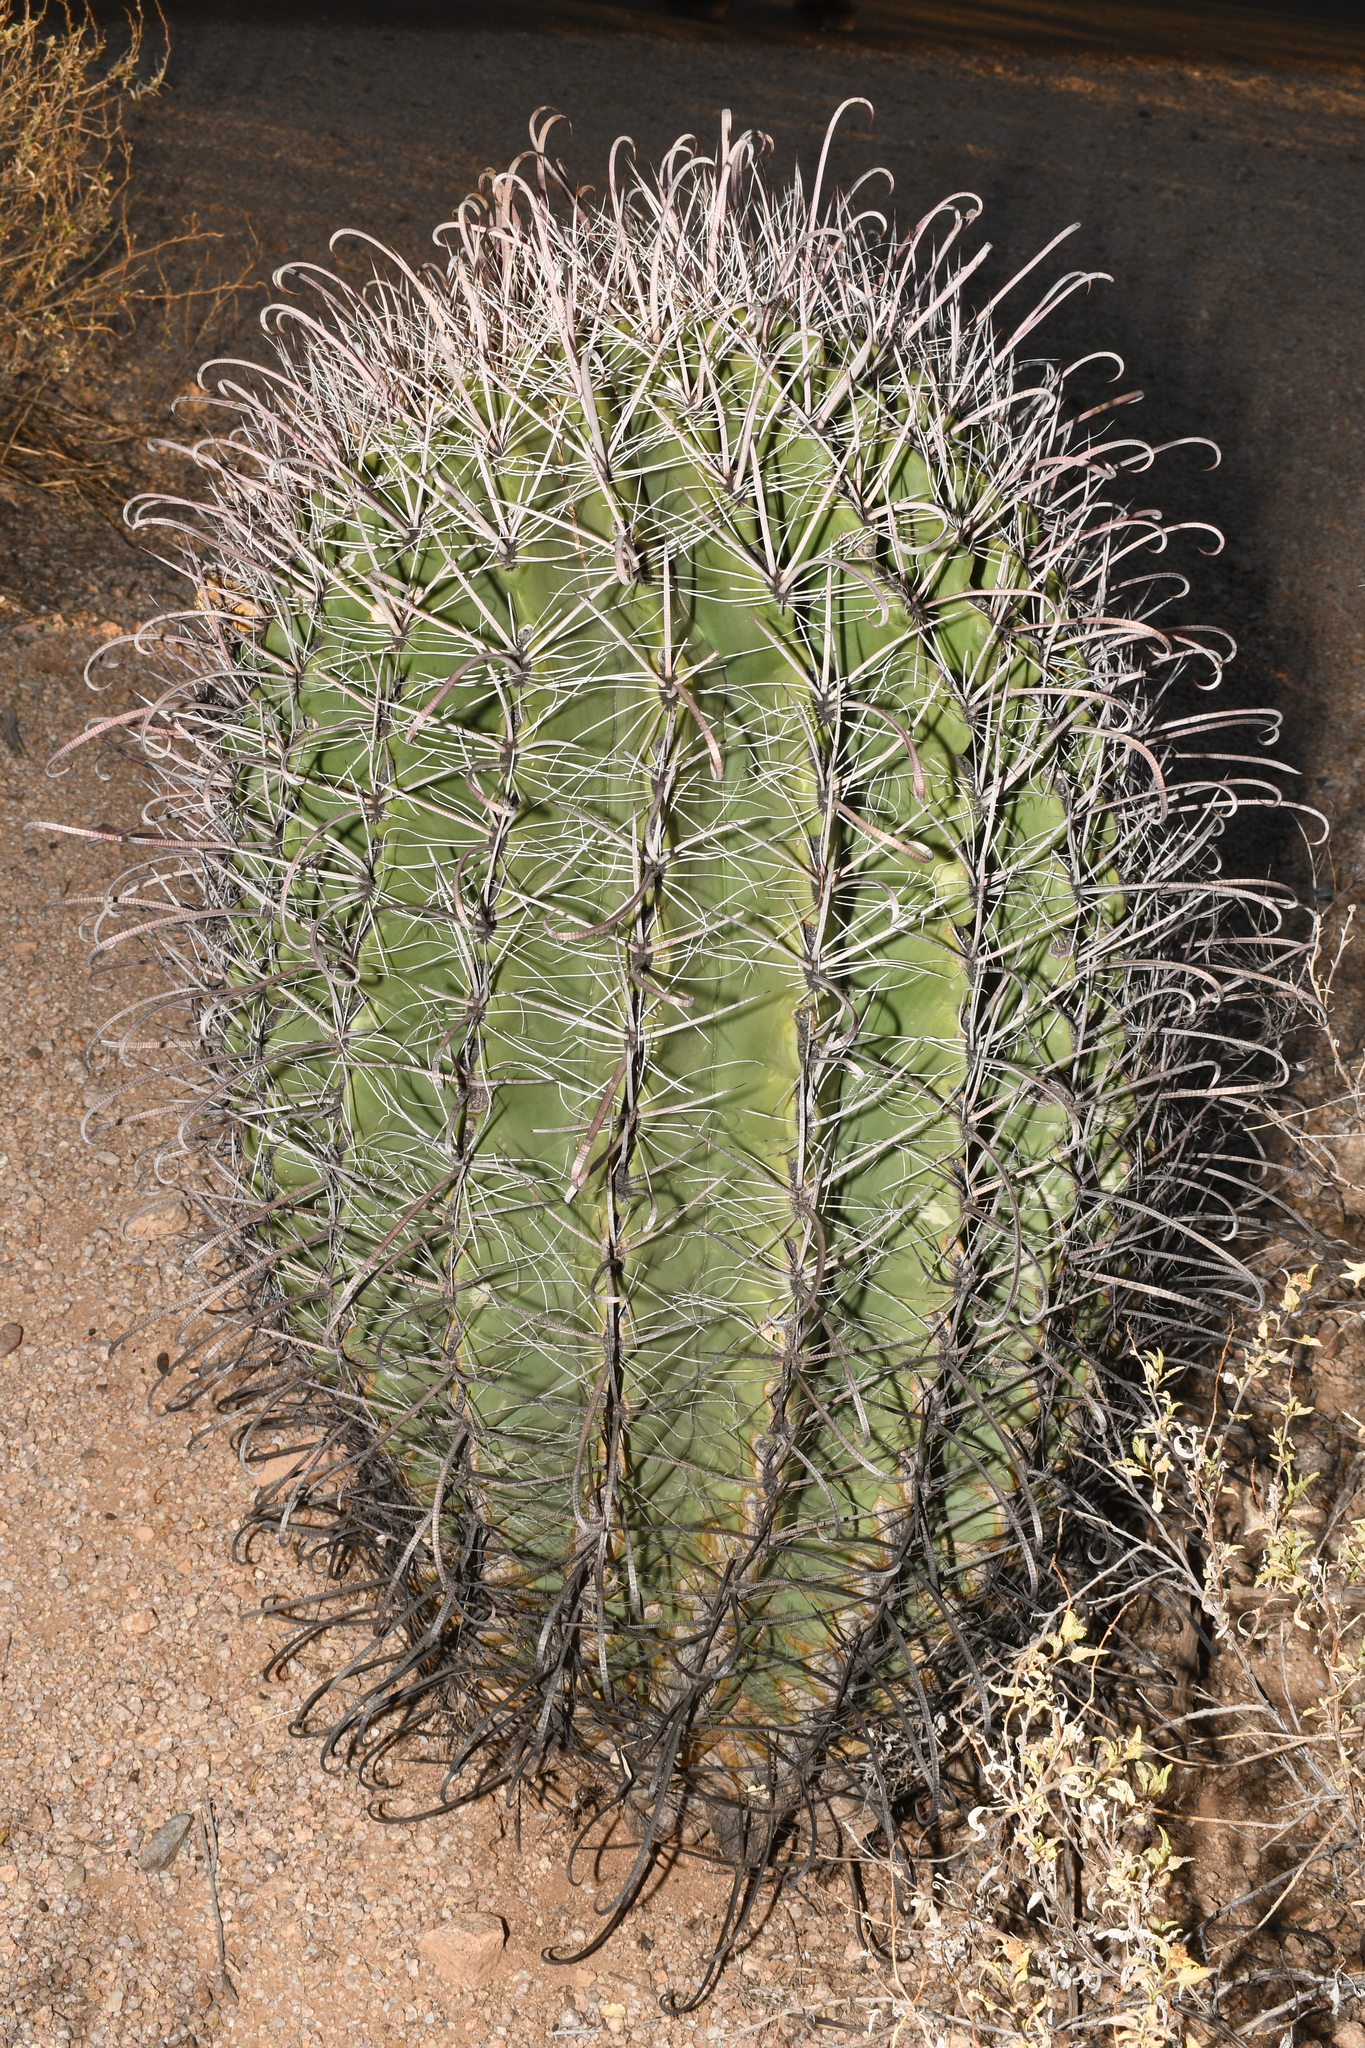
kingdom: Plantae
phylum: Tracheophyta
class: Magnoliopsida
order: Caryophyllales
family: Cactaceae
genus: Ferocactus
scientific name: Ferocactus wislizeni
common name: Candy barrel cactus
